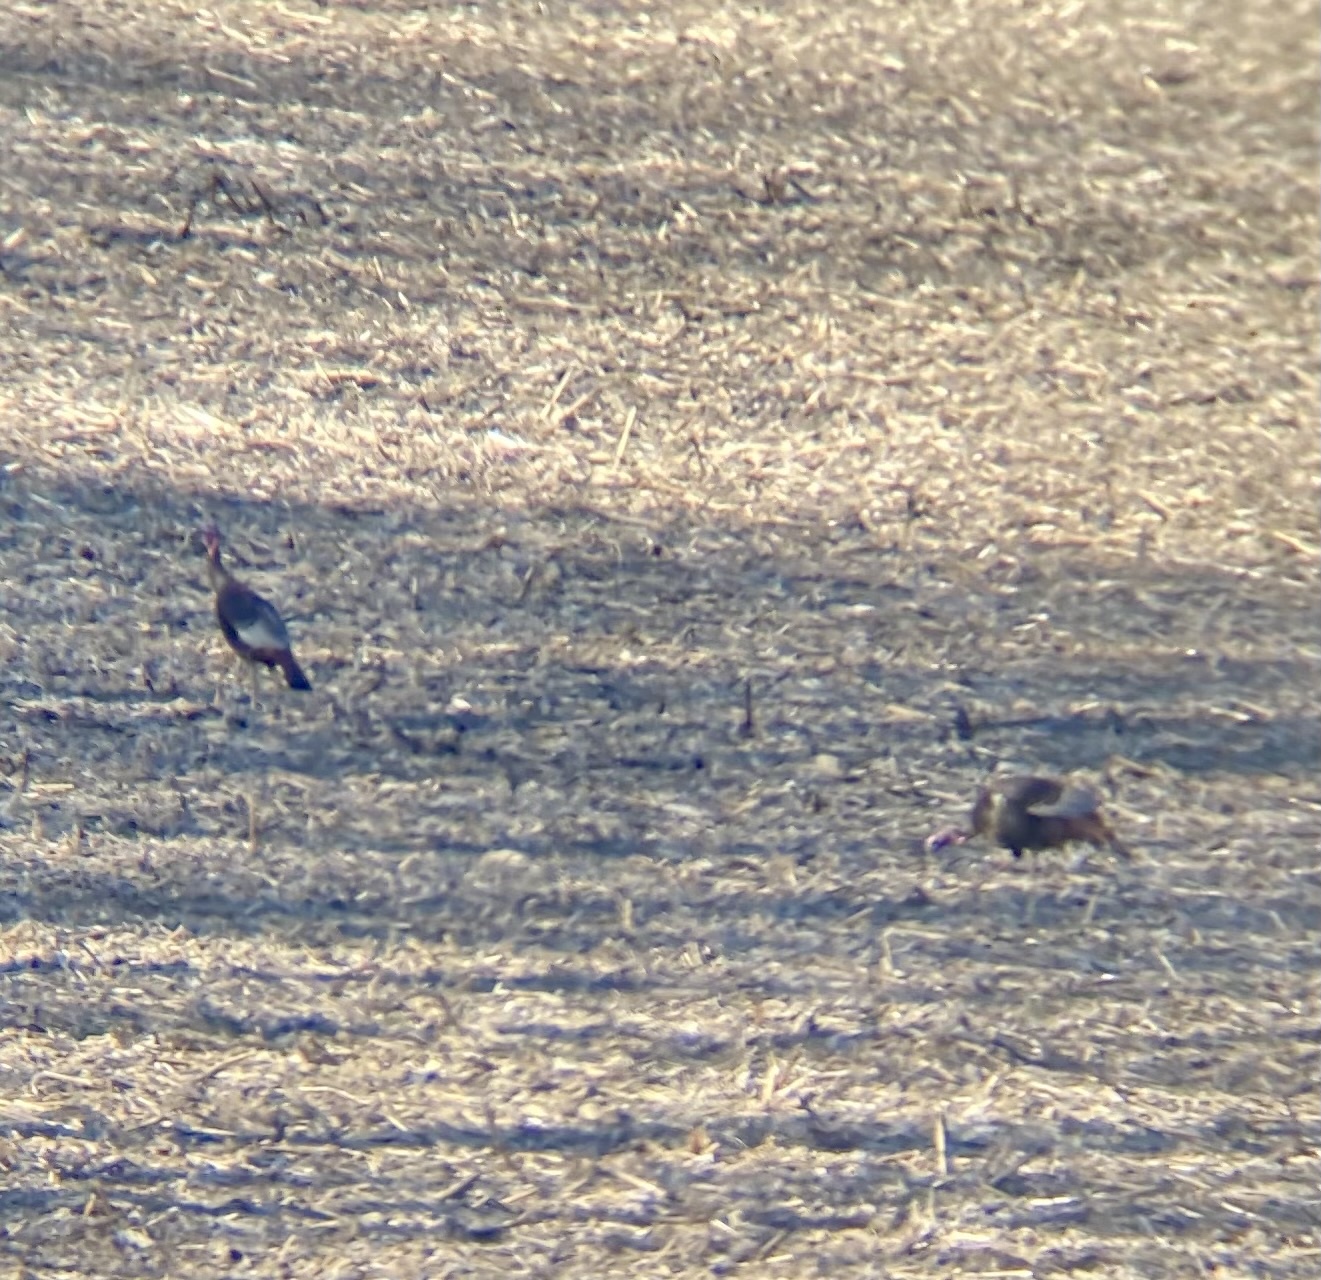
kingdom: Animalia
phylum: Chordata
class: Aves
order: Galliformes
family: Phasianidae
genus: Meleagris
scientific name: Meleagris gallopavo
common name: Wild turkey
